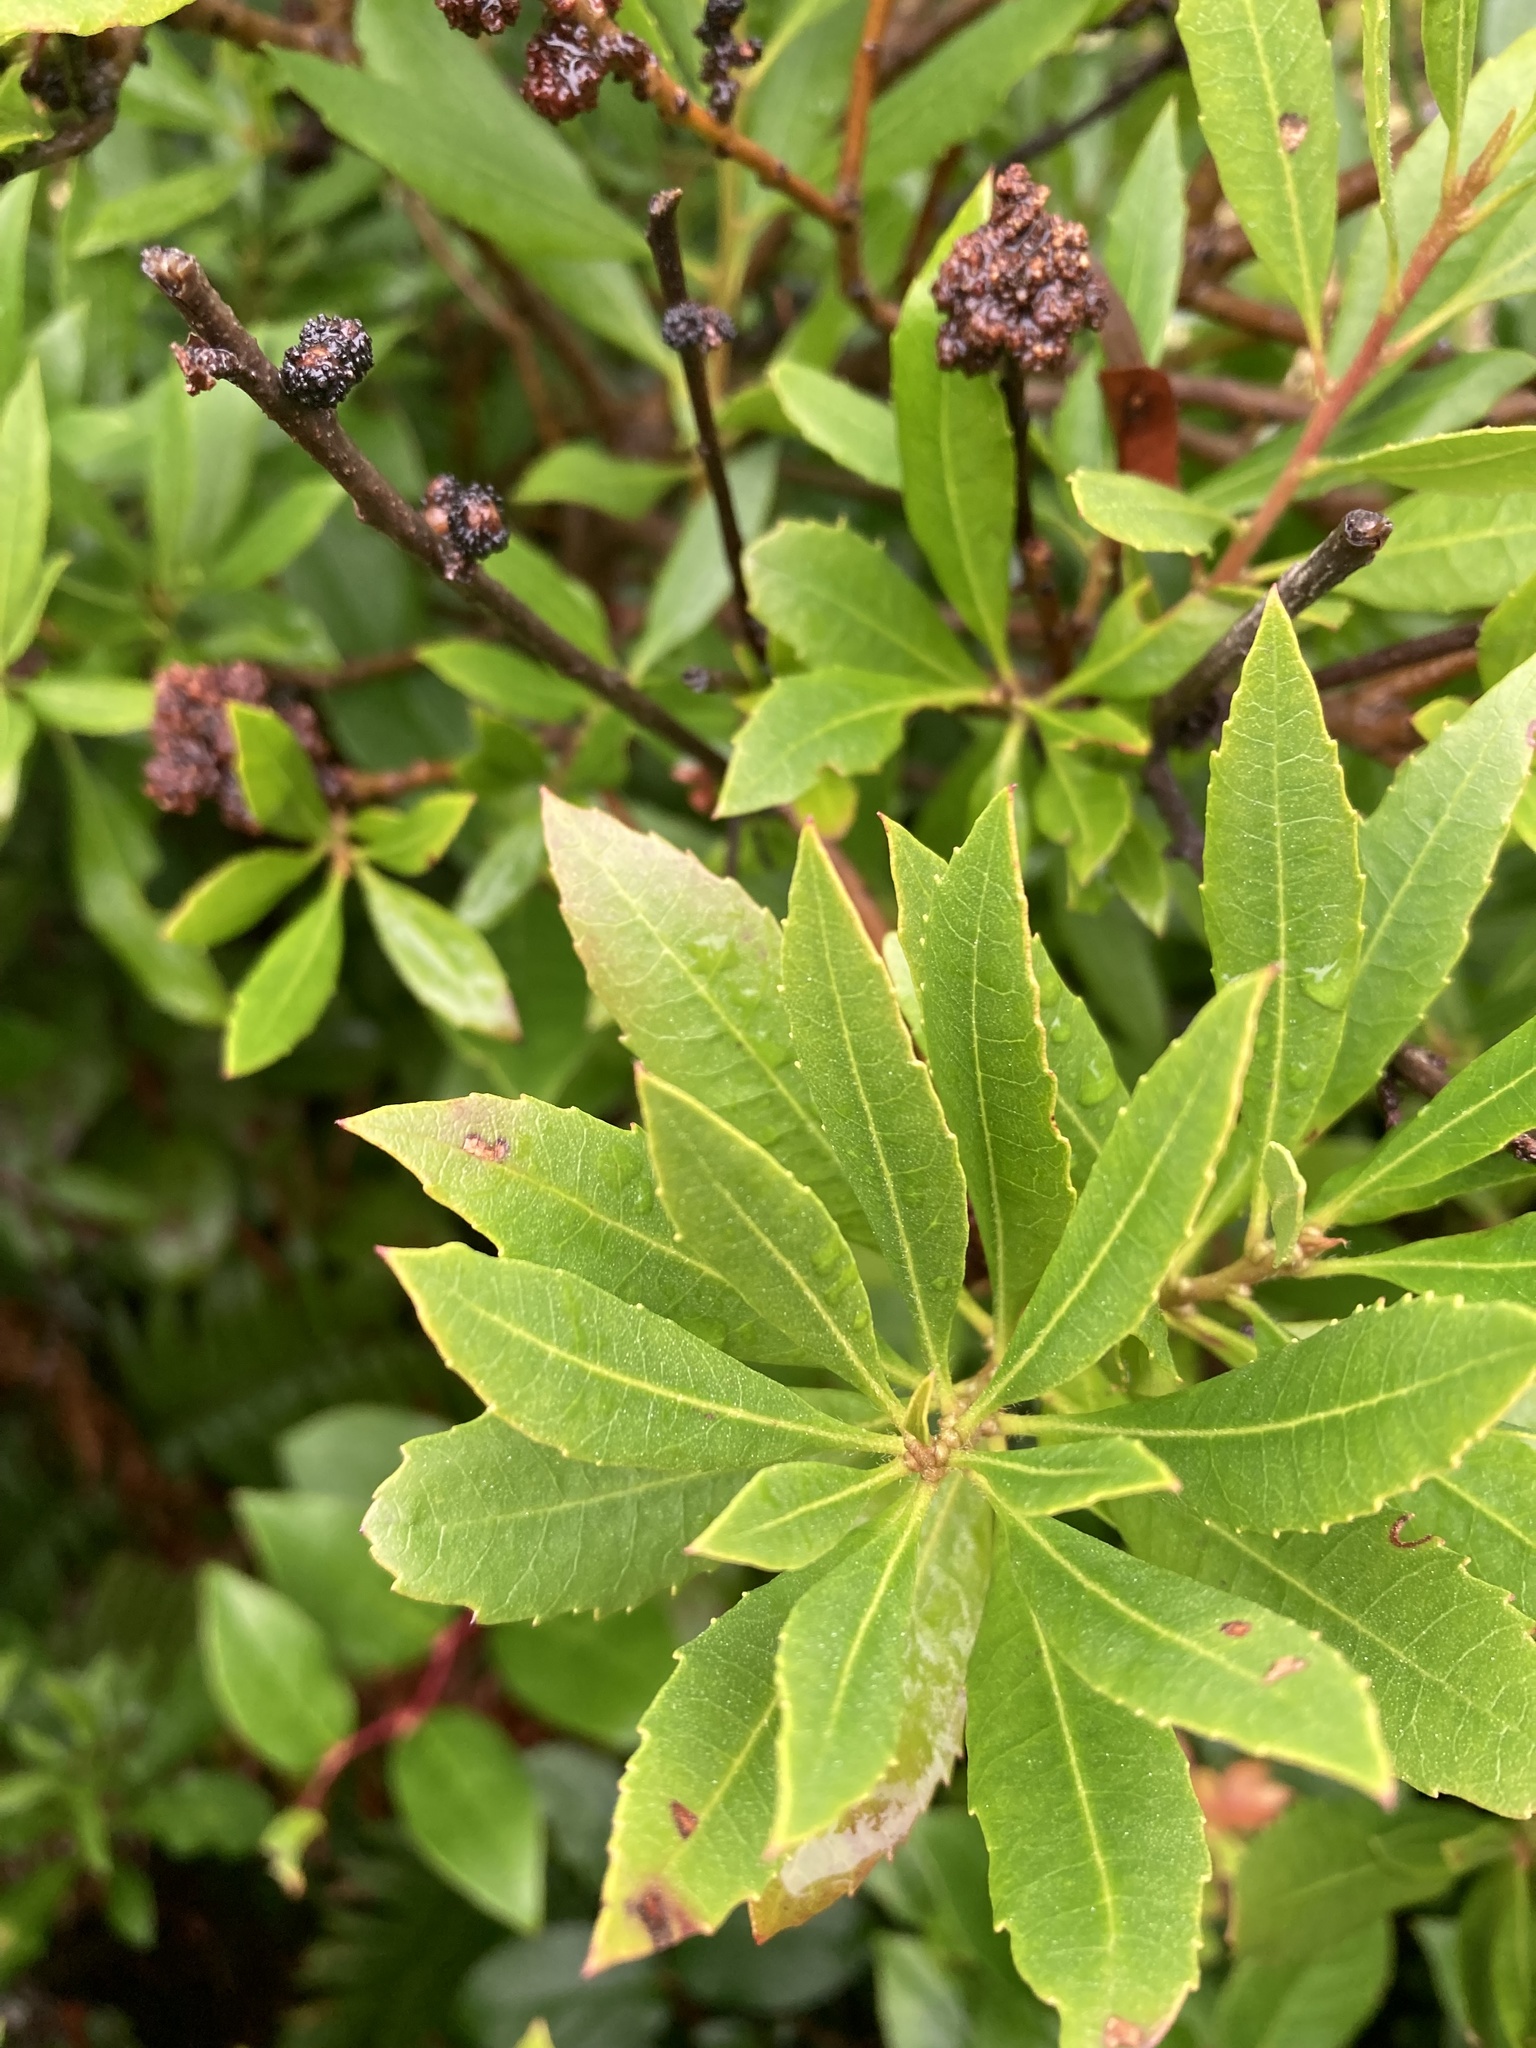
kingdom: Plantae
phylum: Tracheophyta
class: Magnoliopsida
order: Fagales
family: Myricaceae
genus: Morella
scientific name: Morella californica
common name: California wax-myrtle
